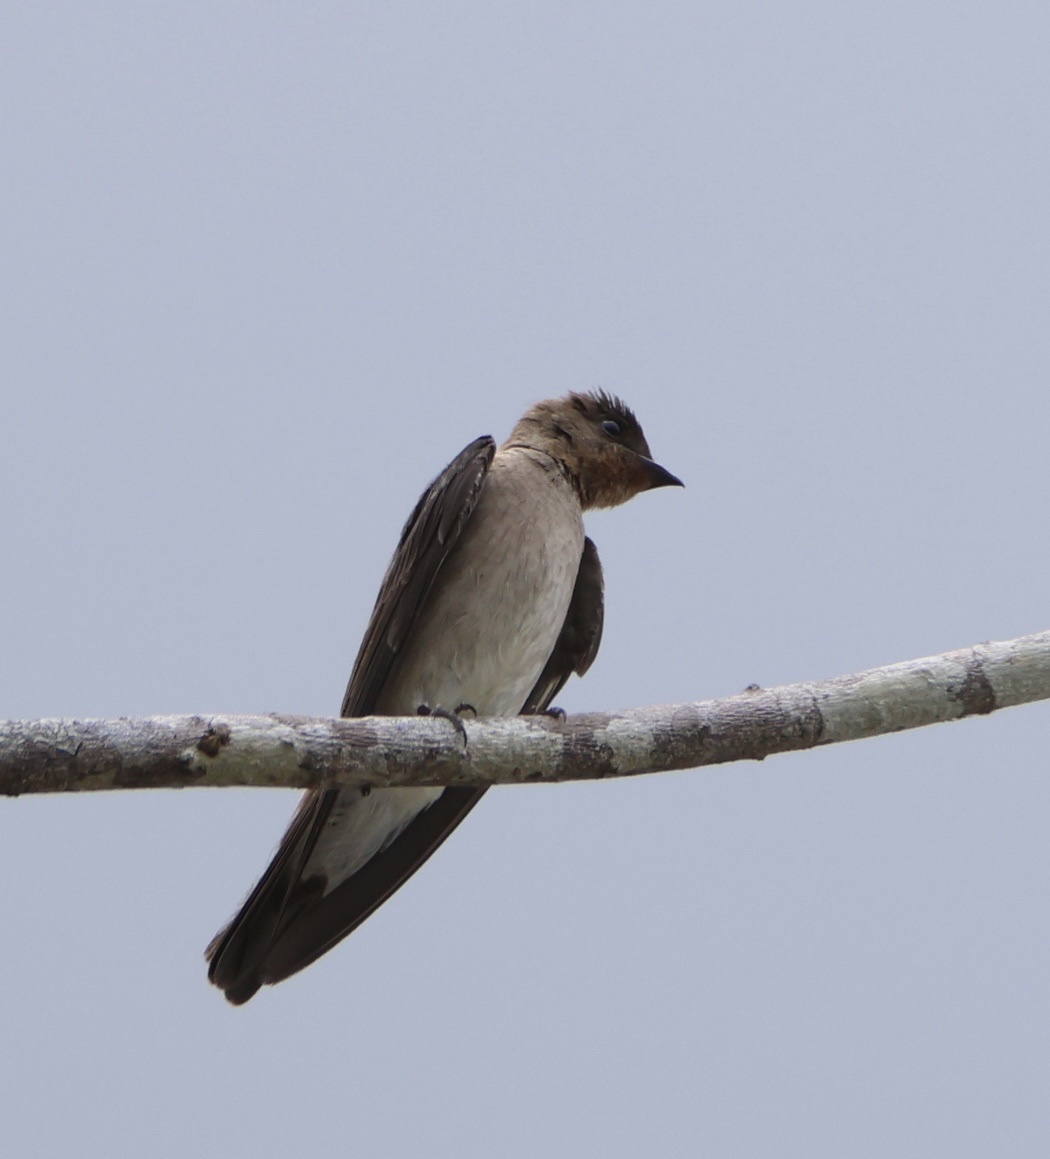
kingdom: Animalia
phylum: Chordata
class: Aves
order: Passeriformes
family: Hirundinidae
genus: Stelgidopteryx
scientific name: Stelgidopteryx ruficollis
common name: Southern rough-winged swallow
